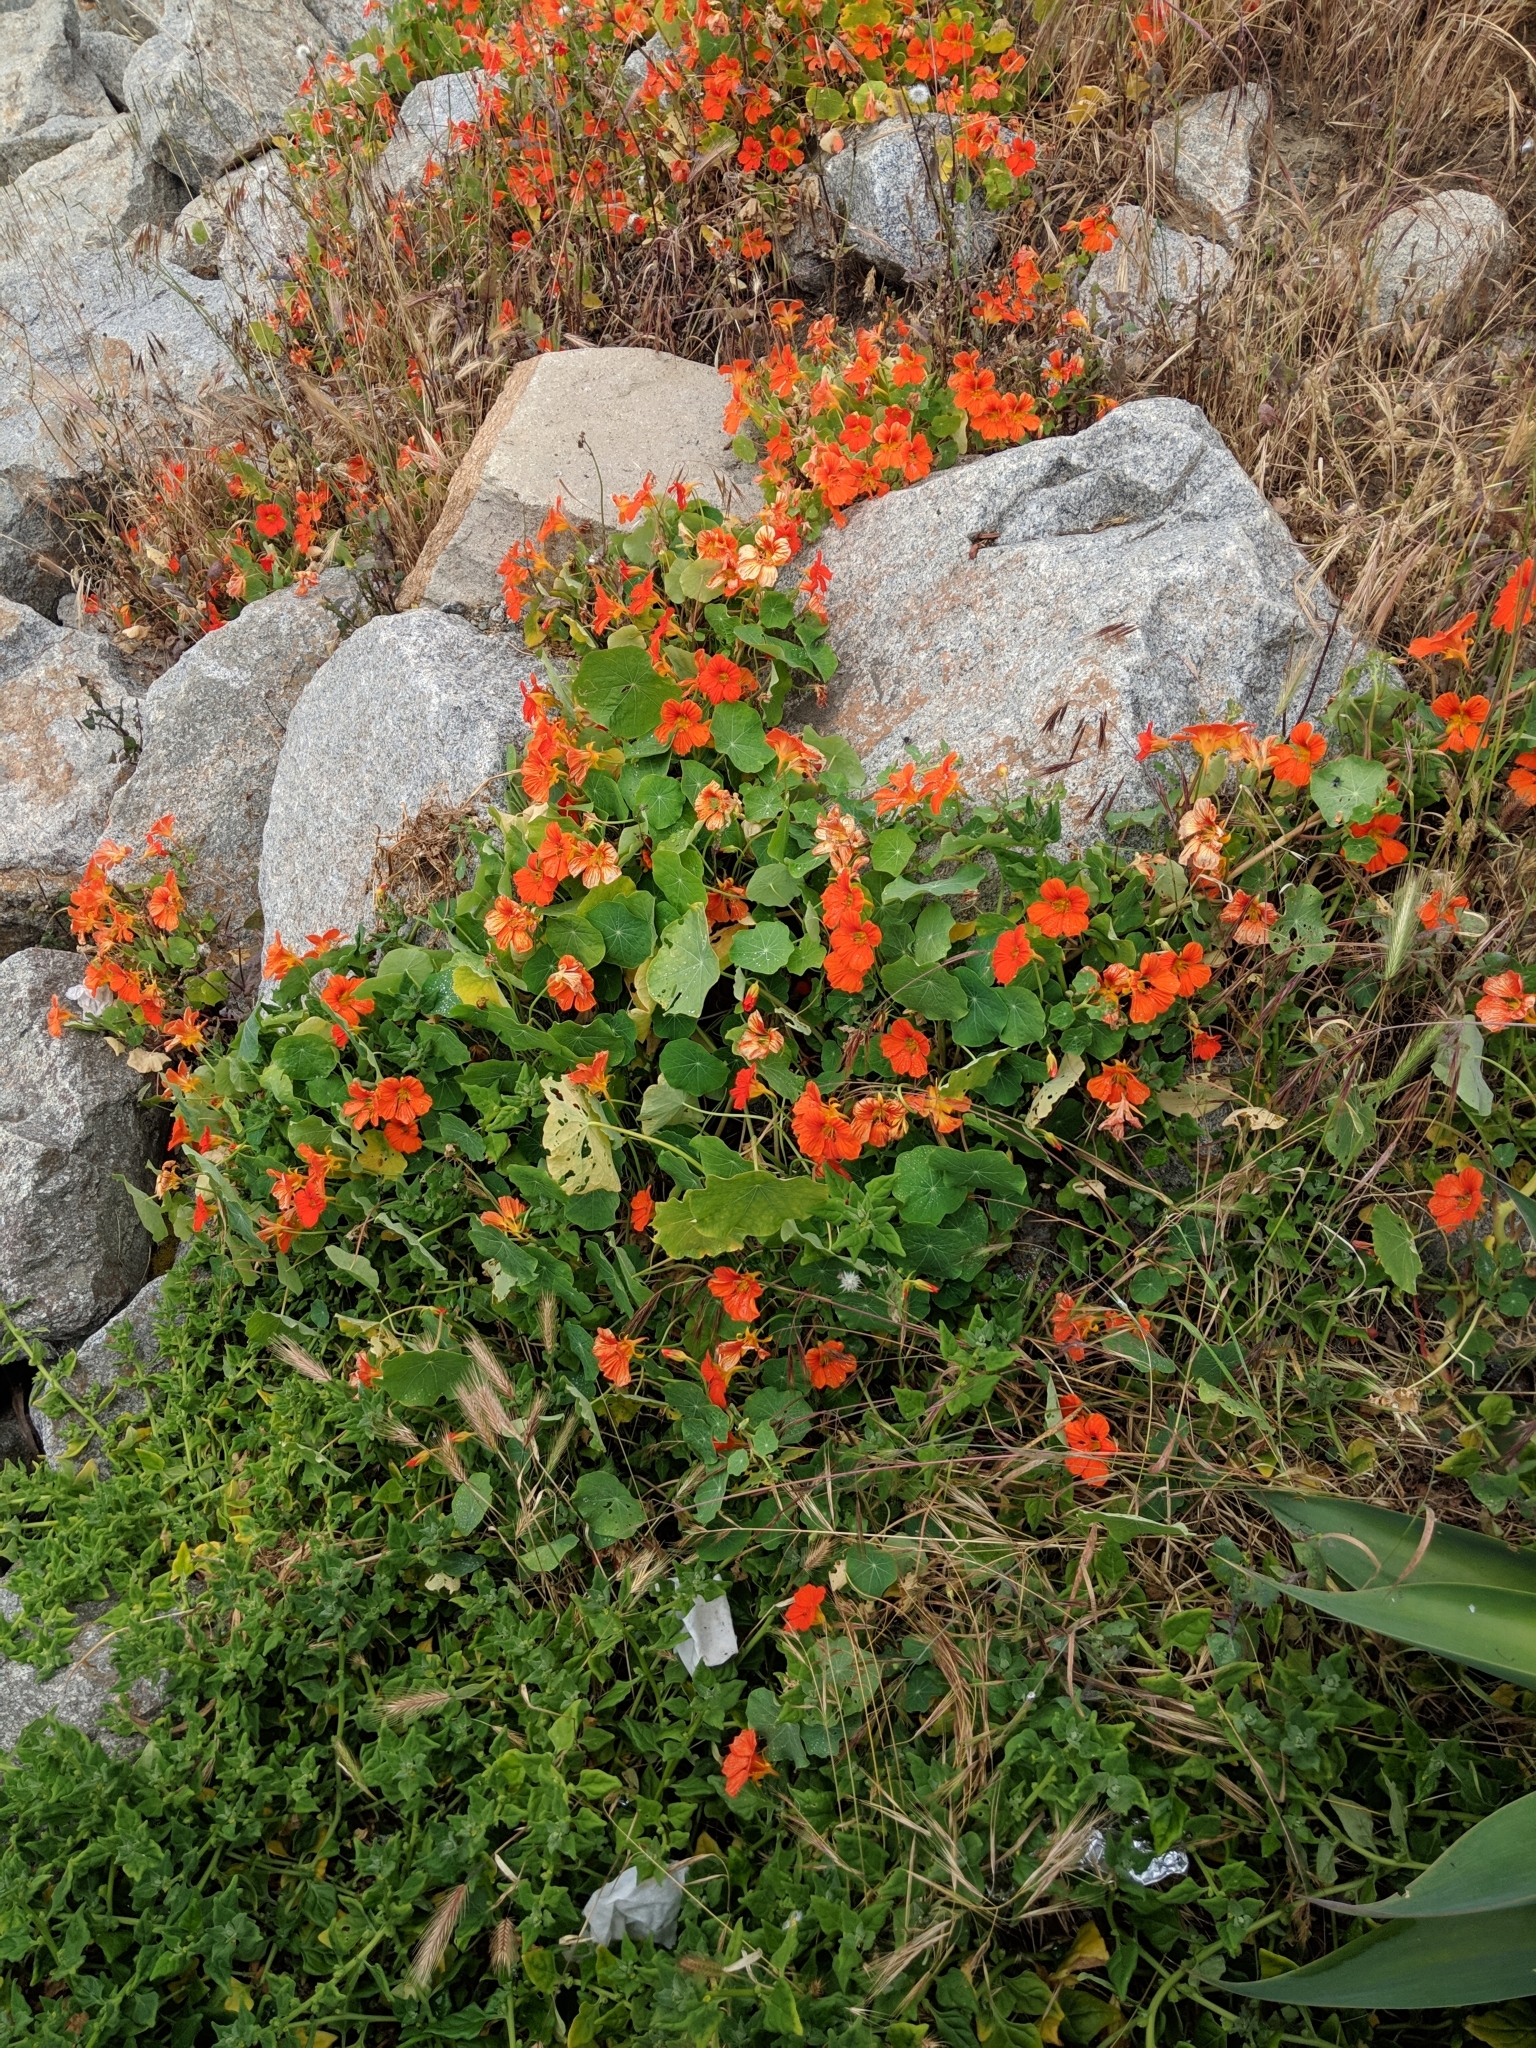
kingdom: Plantae
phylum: Tracheophyta
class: Magnoliopsida
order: Brassicales
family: Tropaeolaceae
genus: Tropaeolum
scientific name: Tropaeolum majus
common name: Nasturtium
